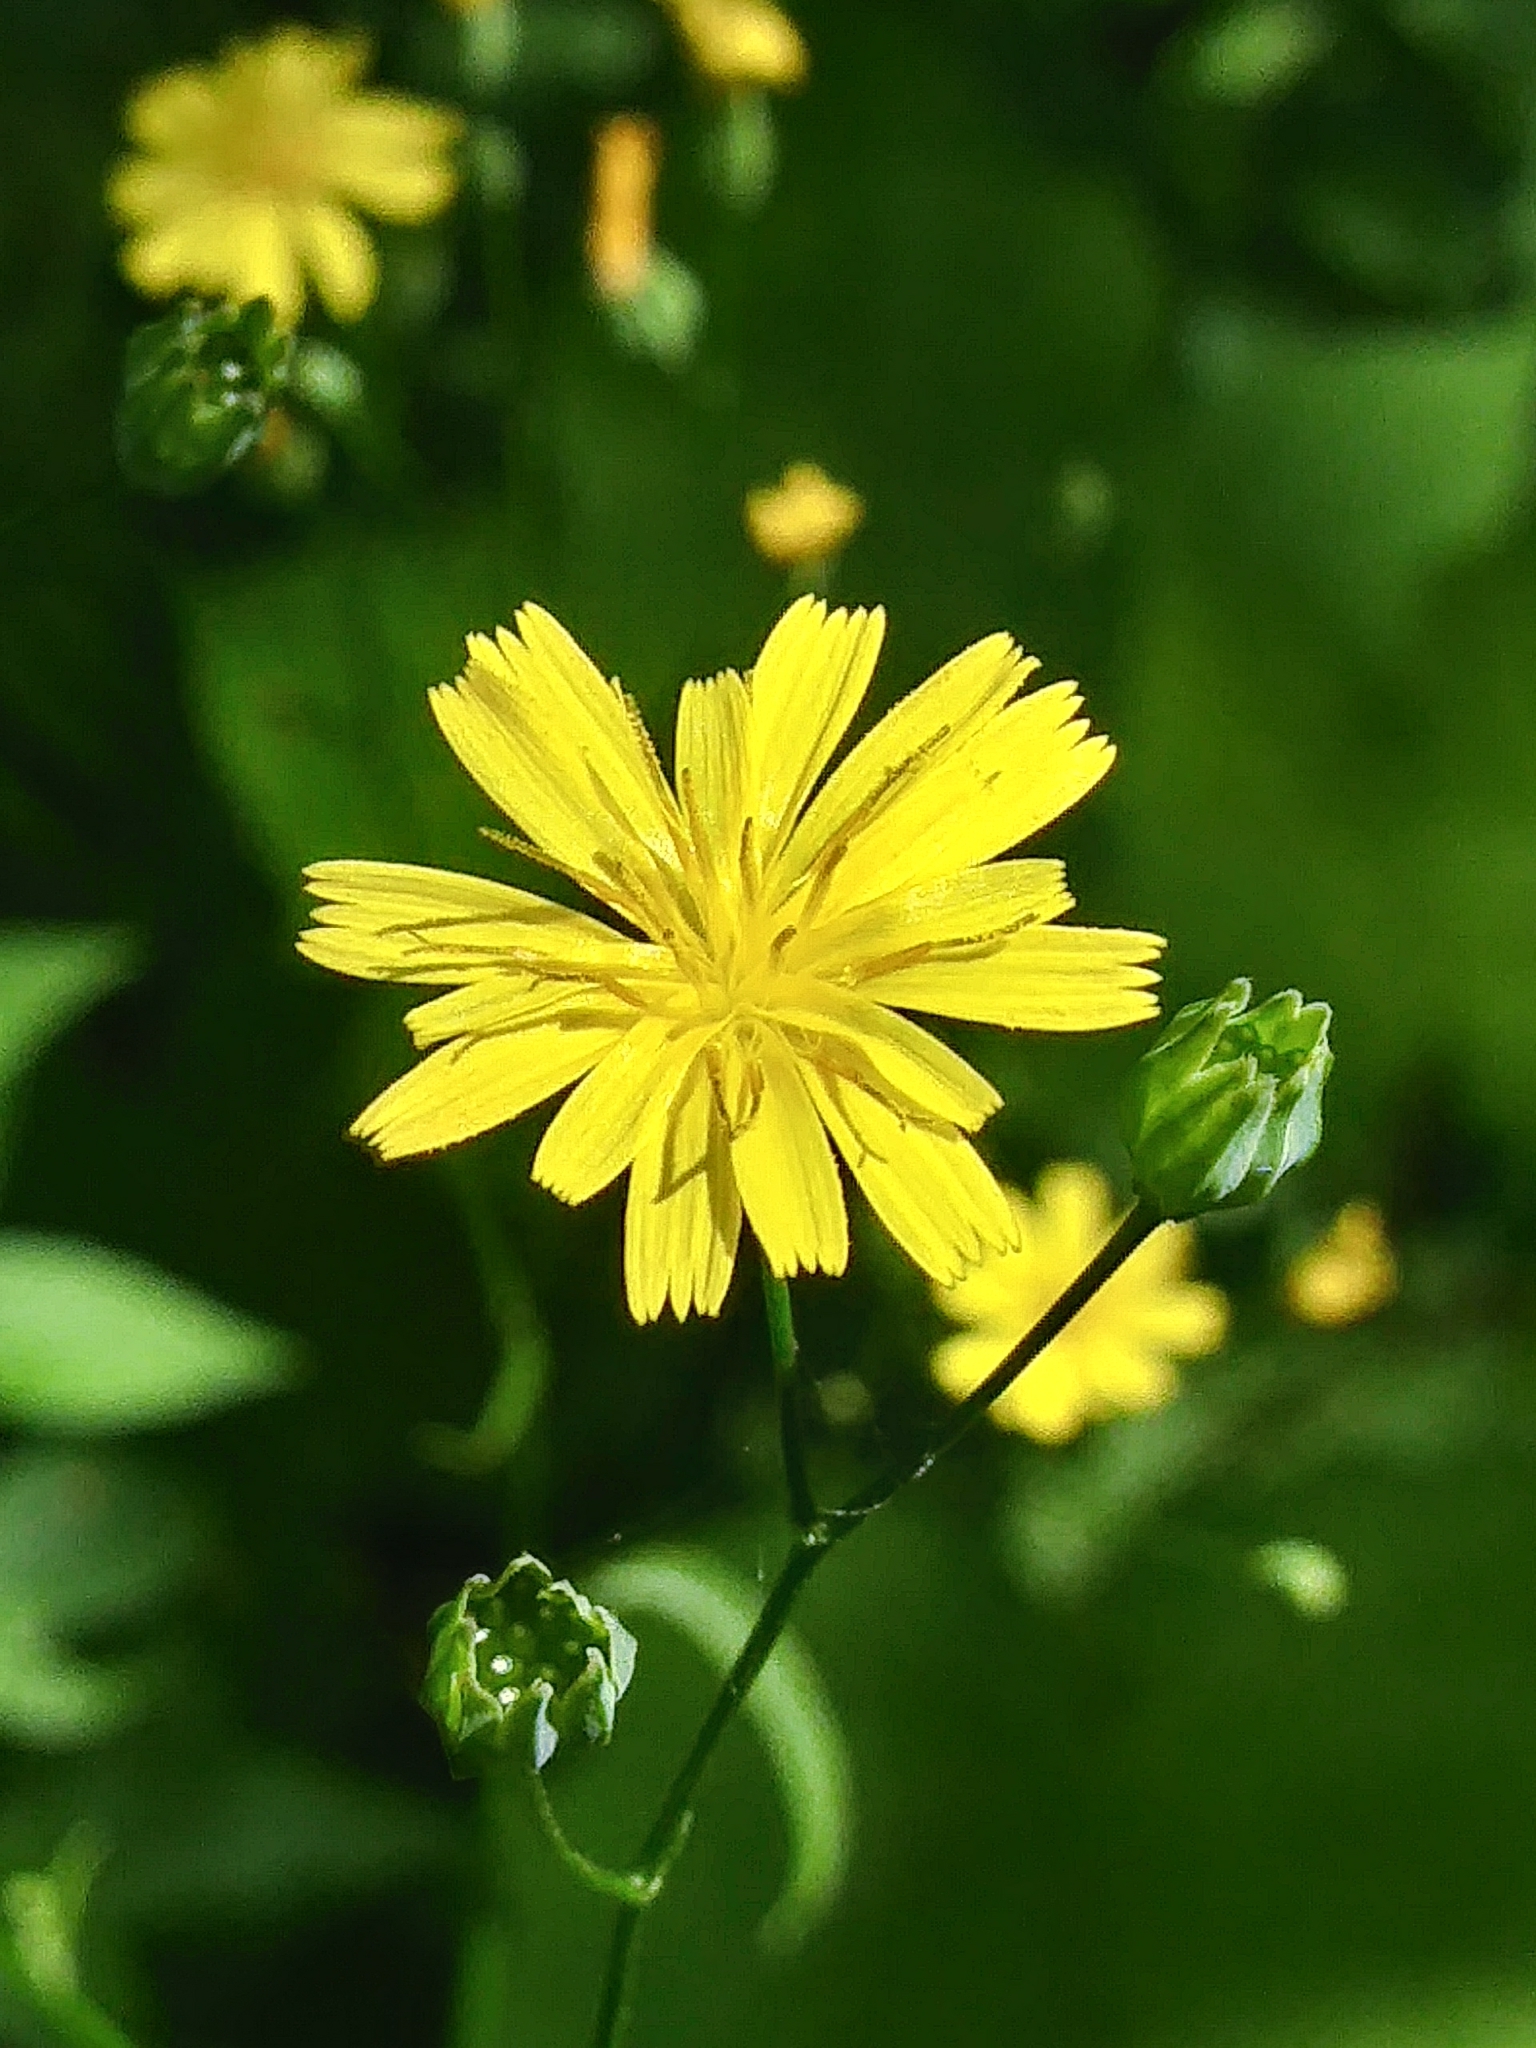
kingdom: Plantae
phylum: Tracheophyta
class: Magnoliopsida
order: Asterales
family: Asteraceae
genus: Lapsana
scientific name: Lapsana communis
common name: Nipplewort
